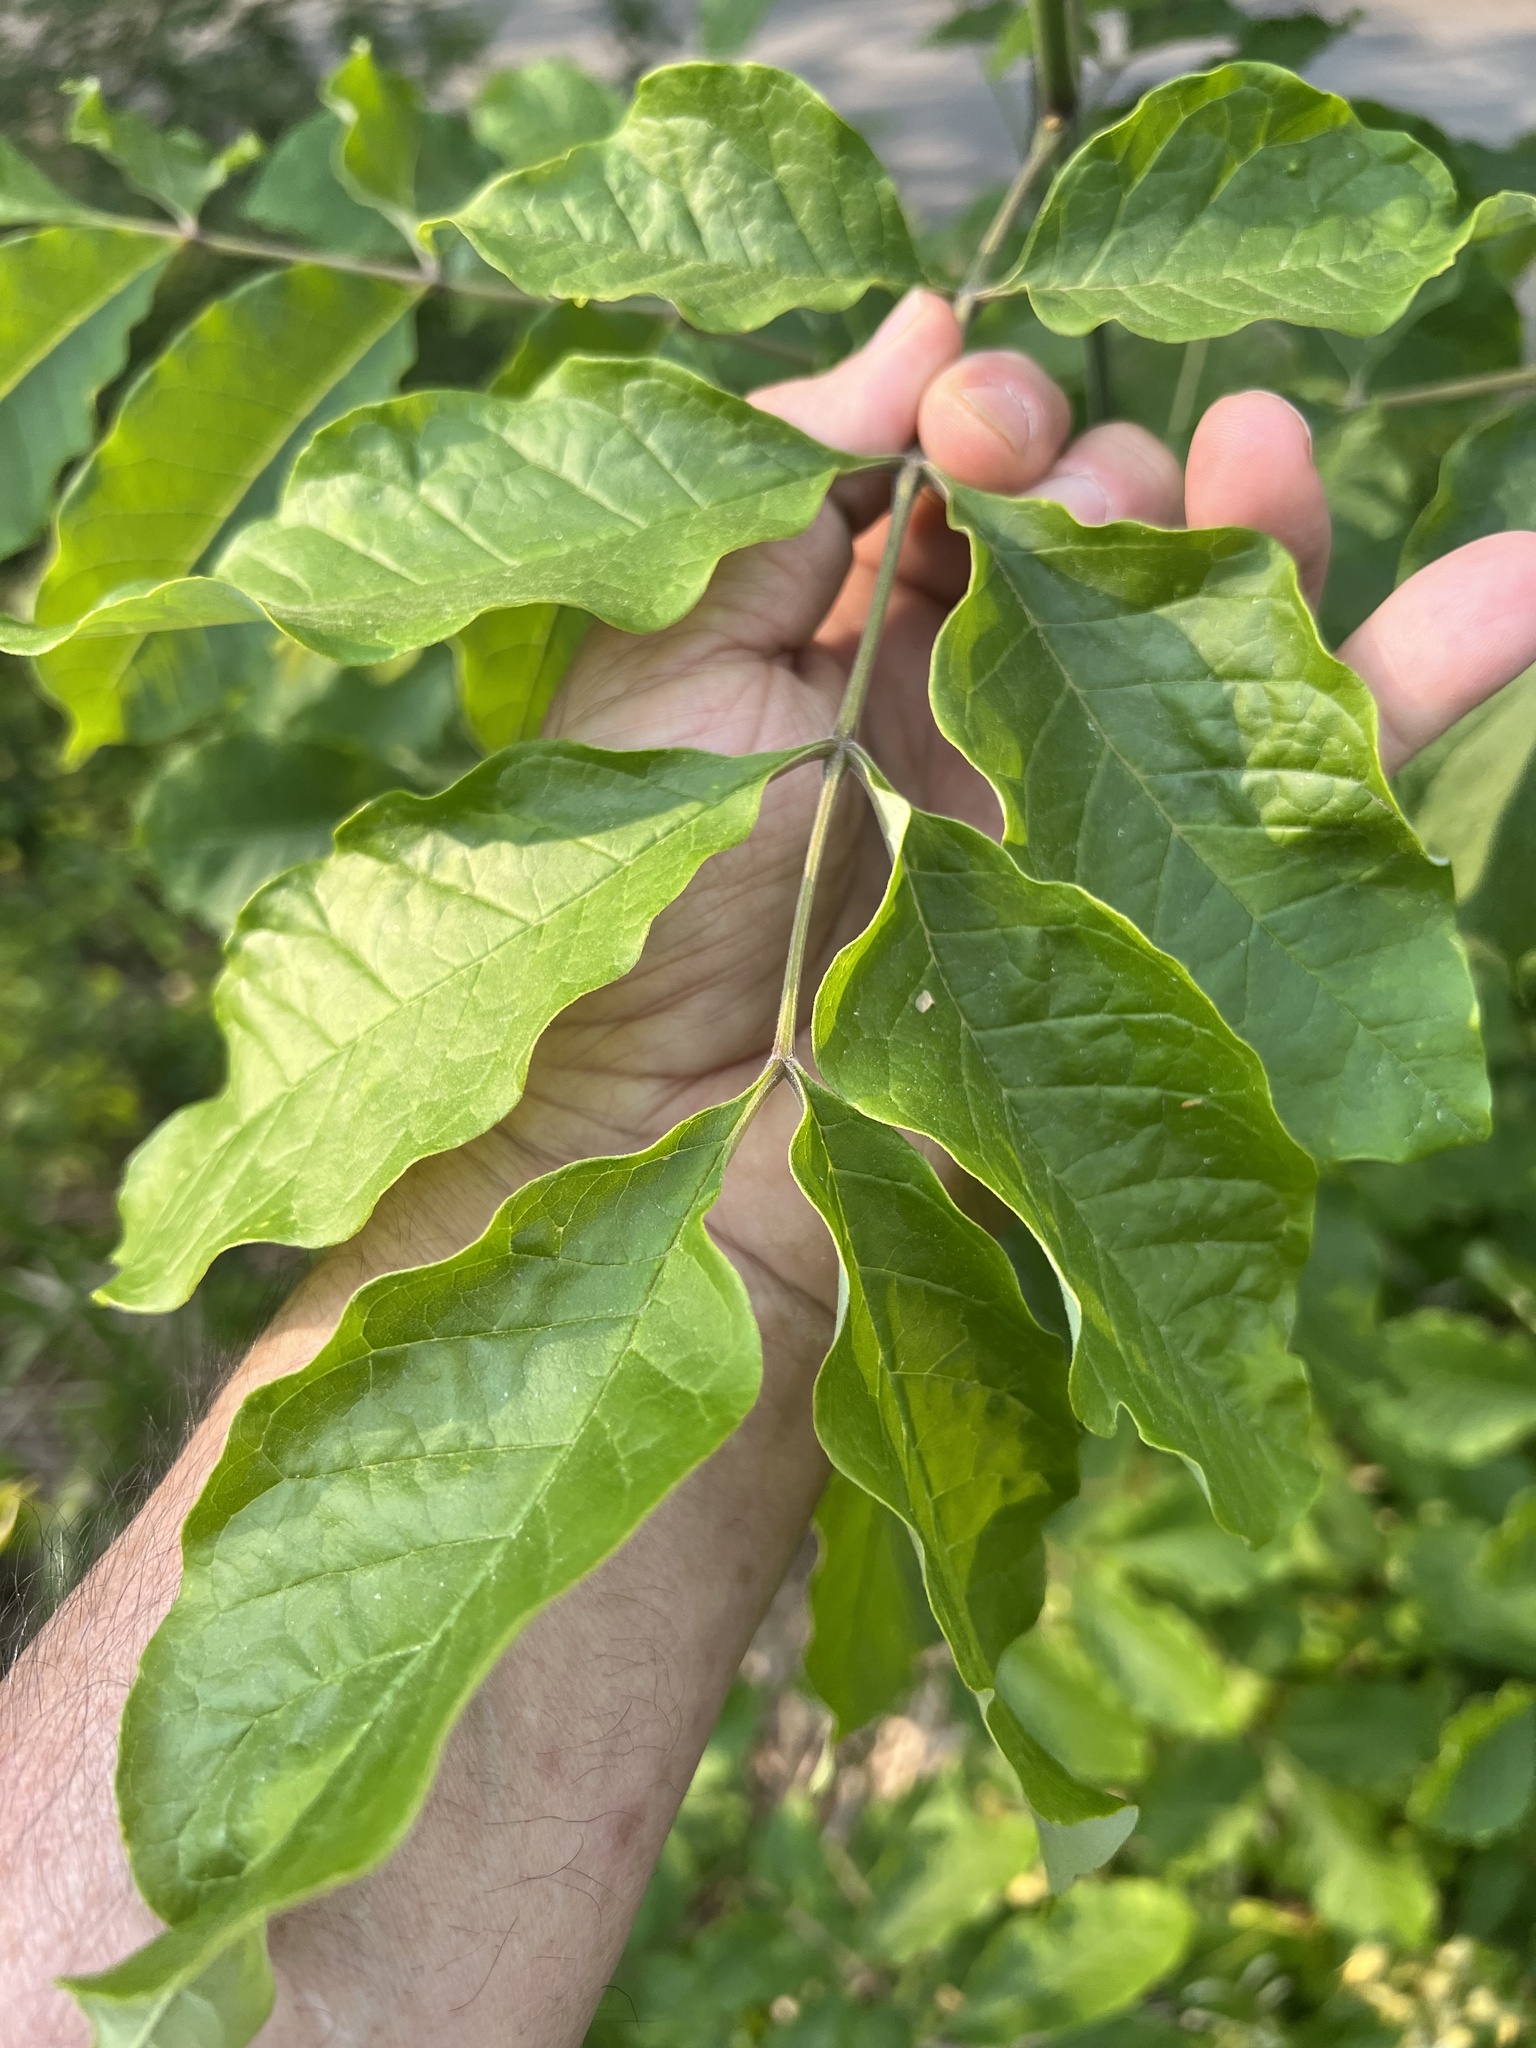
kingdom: Animalia
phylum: Arthropoda
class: Insecta
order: Hymenoptera
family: Tenthredinidae
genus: Tethida
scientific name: Tethida barda
